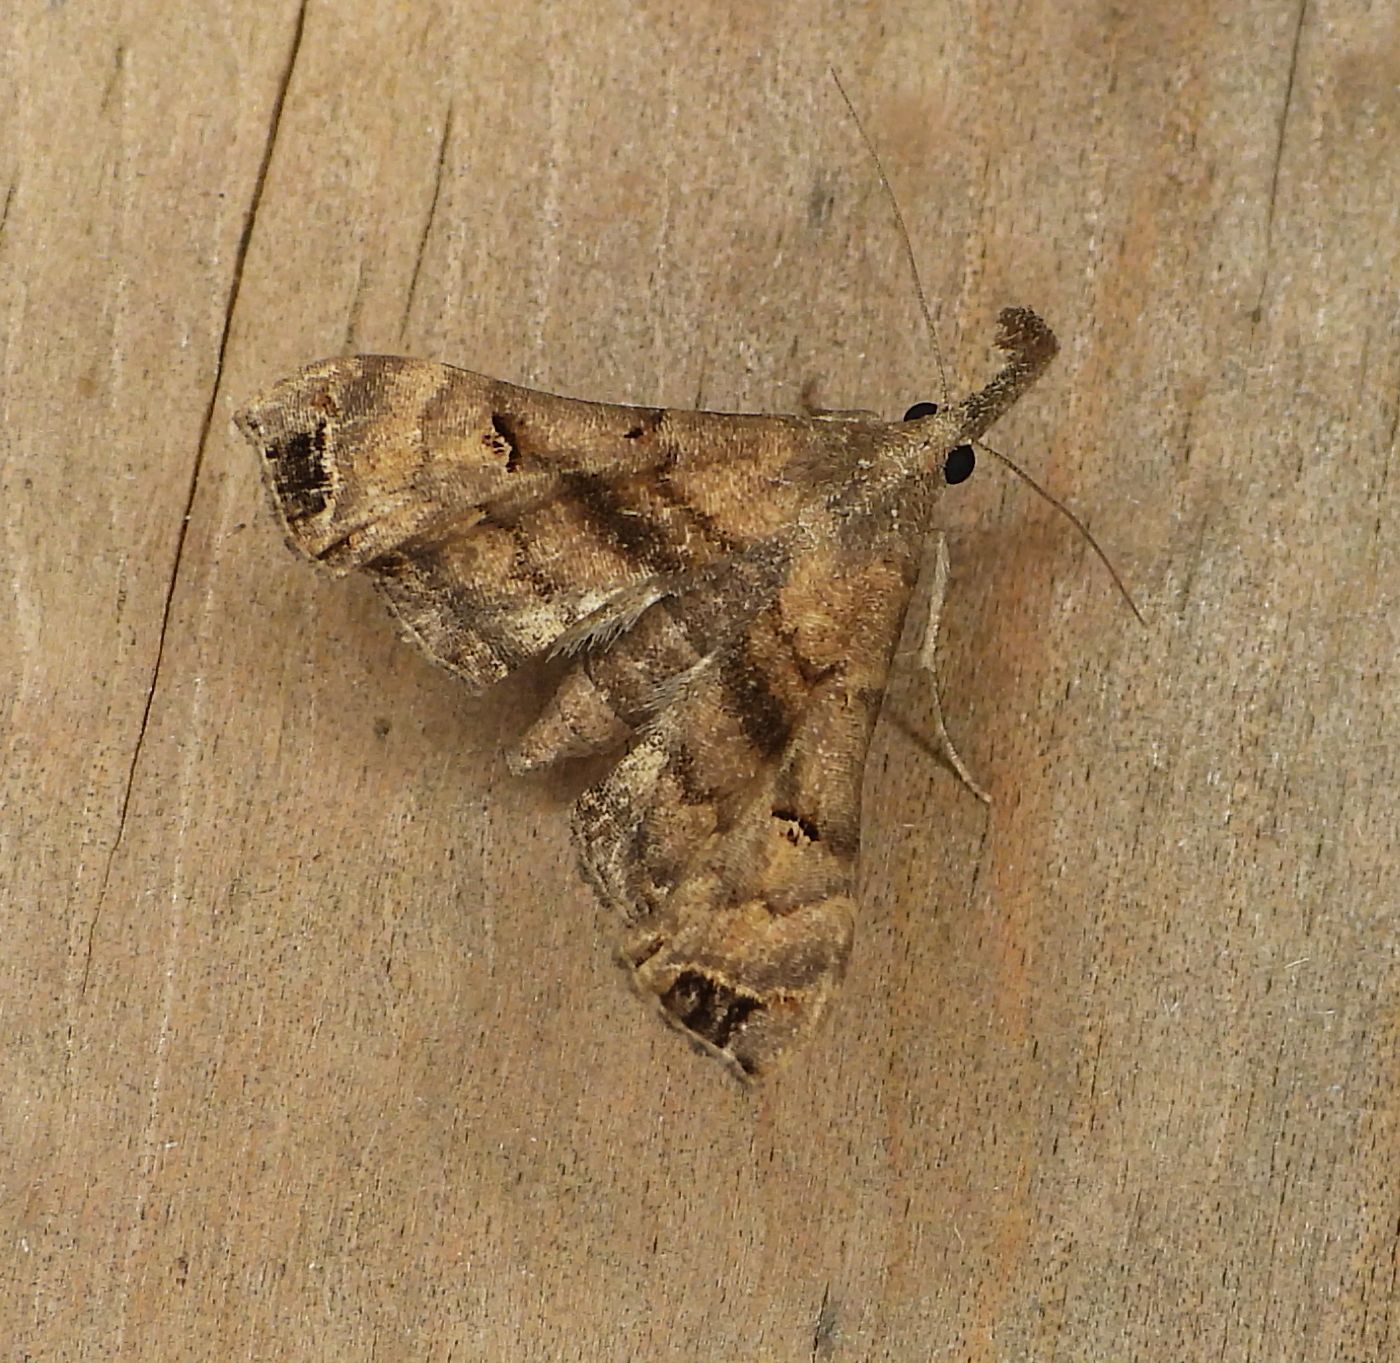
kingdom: Animalia
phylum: Arthropoda
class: Insecta
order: Lepidoptera
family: Erebidae
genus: Palthis
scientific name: Palthis asopialis
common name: Faint-spotted palthis moth
